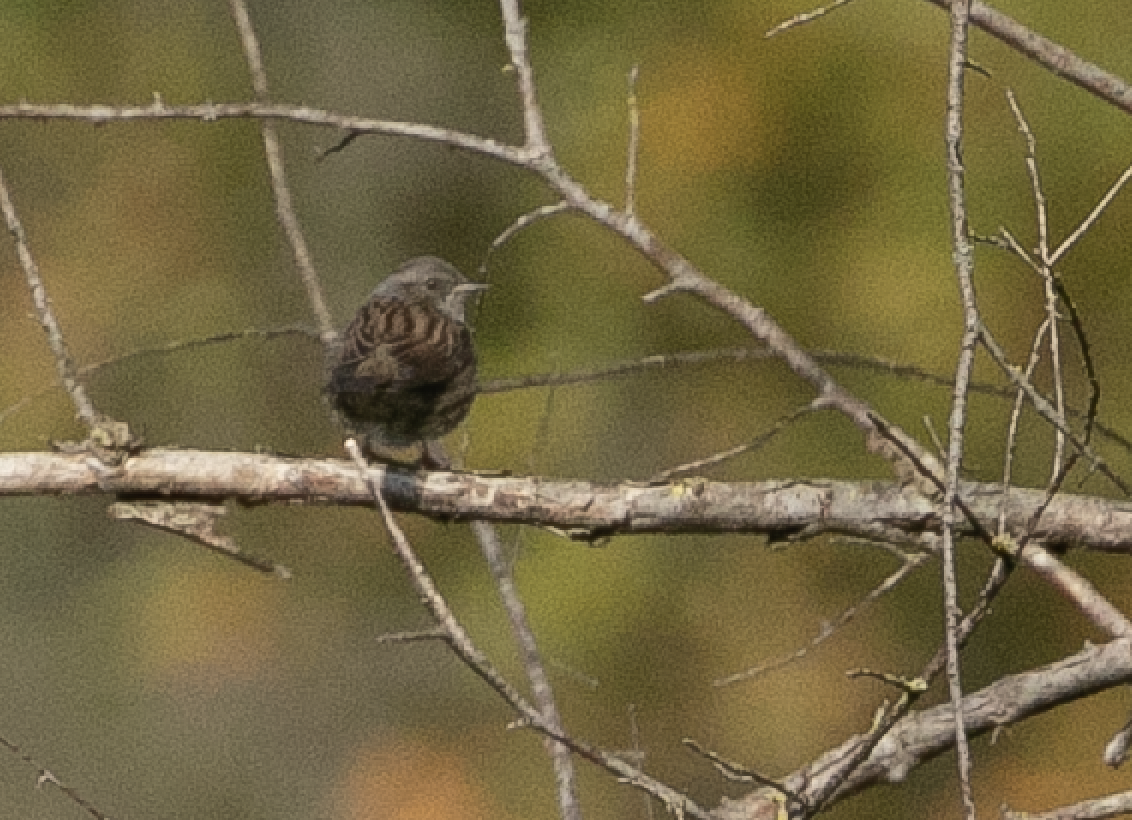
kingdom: Animalia
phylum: Chordata
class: Aves
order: Passeriformes
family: Prunellidae
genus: Prunella
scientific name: Prunella modularis
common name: Dunnock
